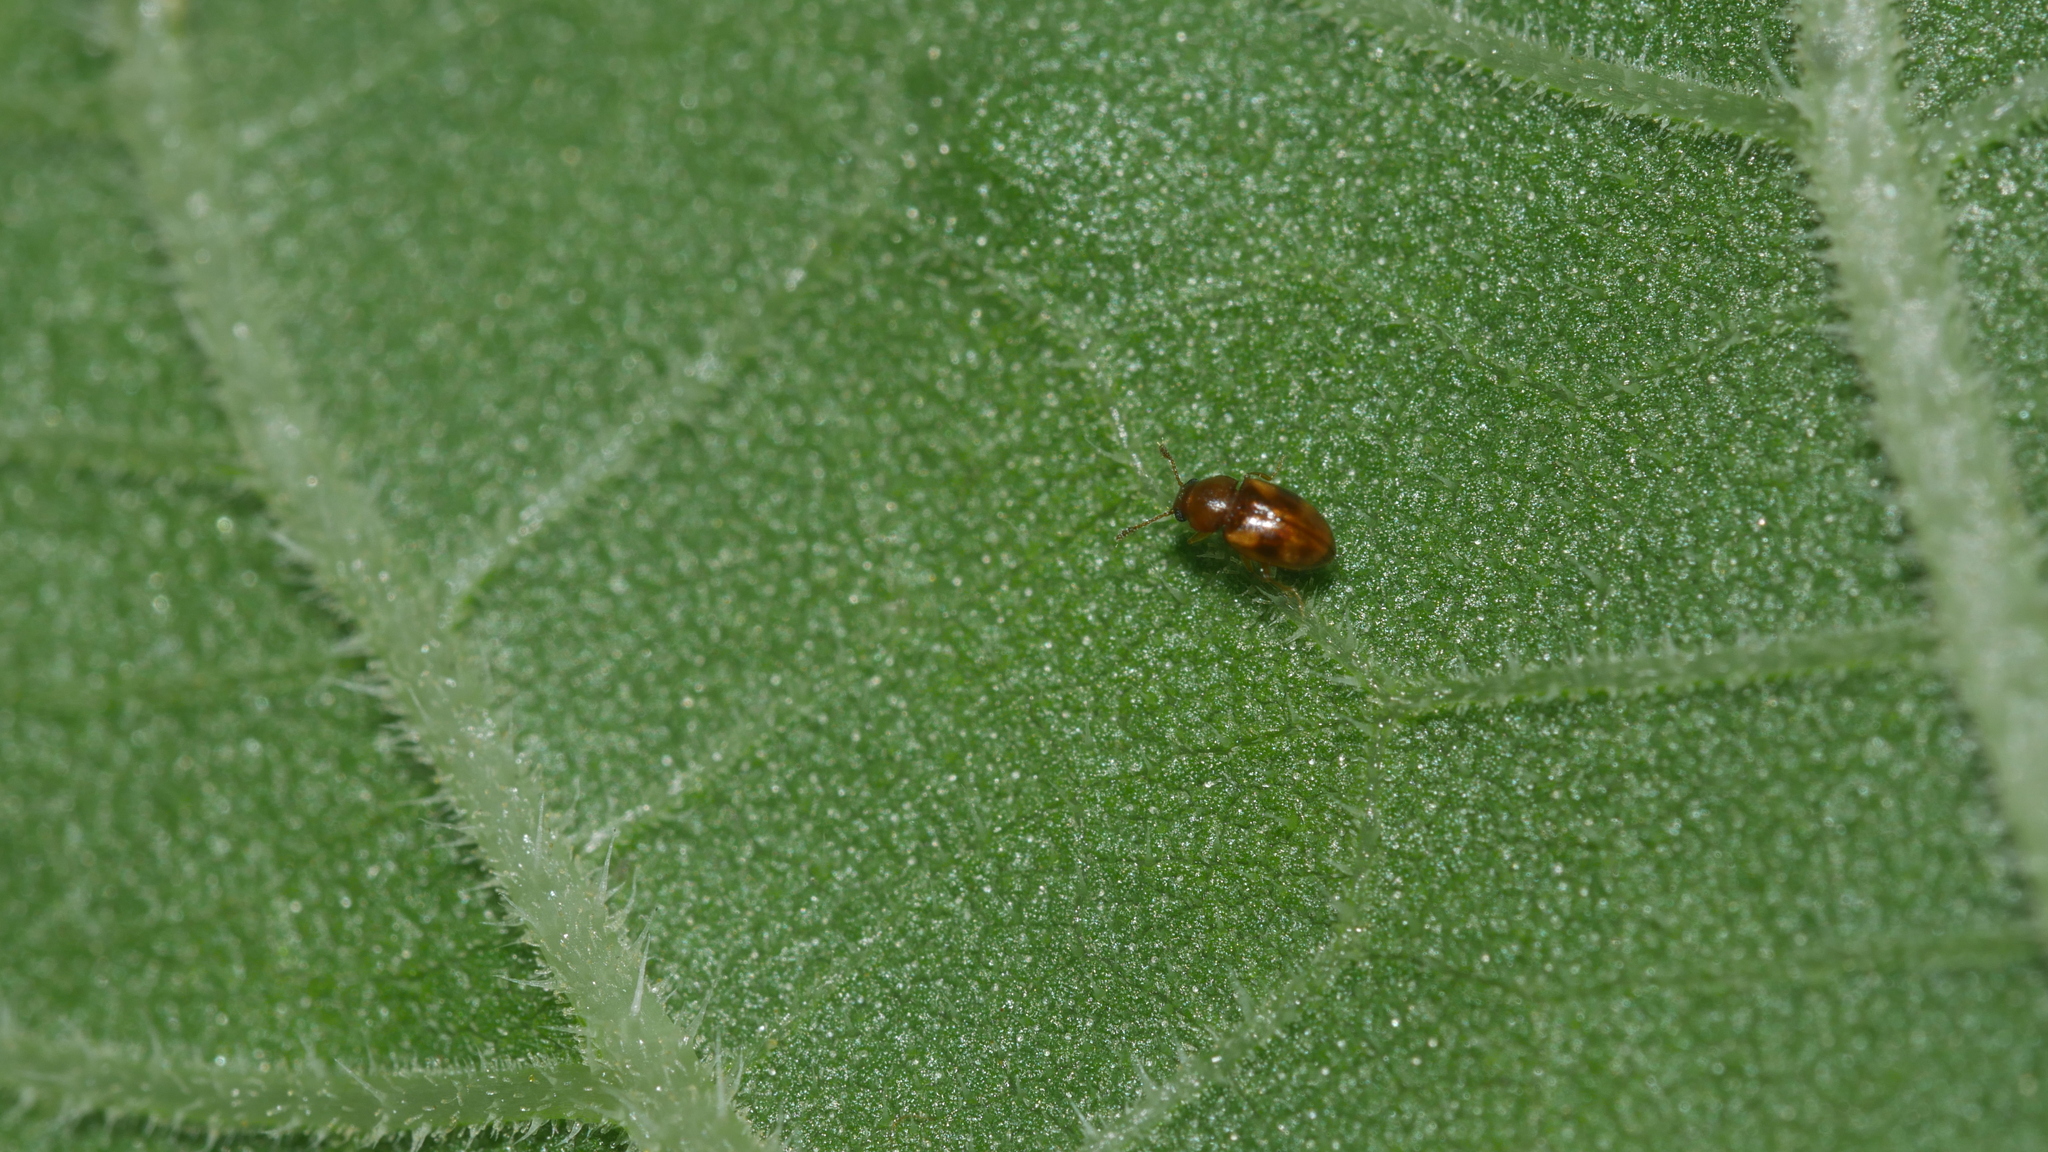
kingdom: Animalia
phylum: Arthropoda
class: Insecta
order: Coleoptera
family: Erotylidae
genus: Toramus
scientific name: Toramus pulchellus
